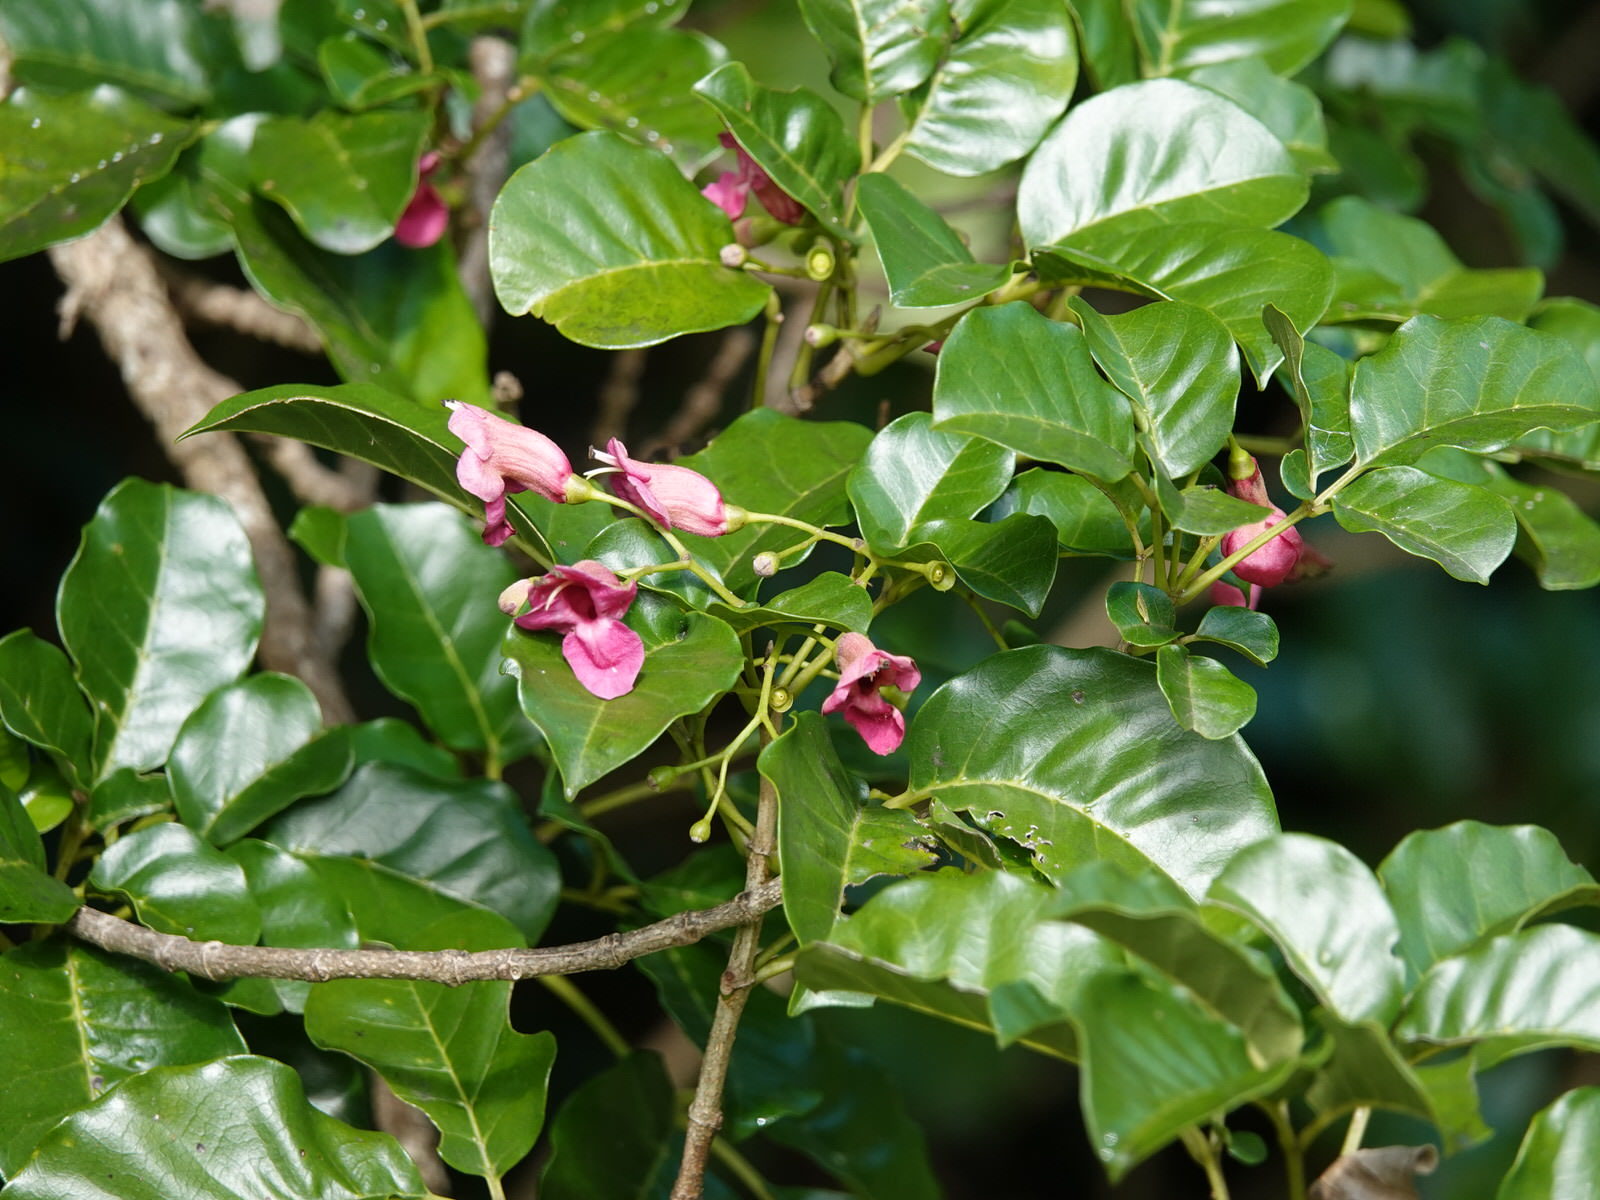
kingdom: Plantae
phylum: Tracheophyta
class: Magnoliopsida
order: Lamiales
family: Lamiaceae
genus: Vitex
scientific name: Vitex lucens
